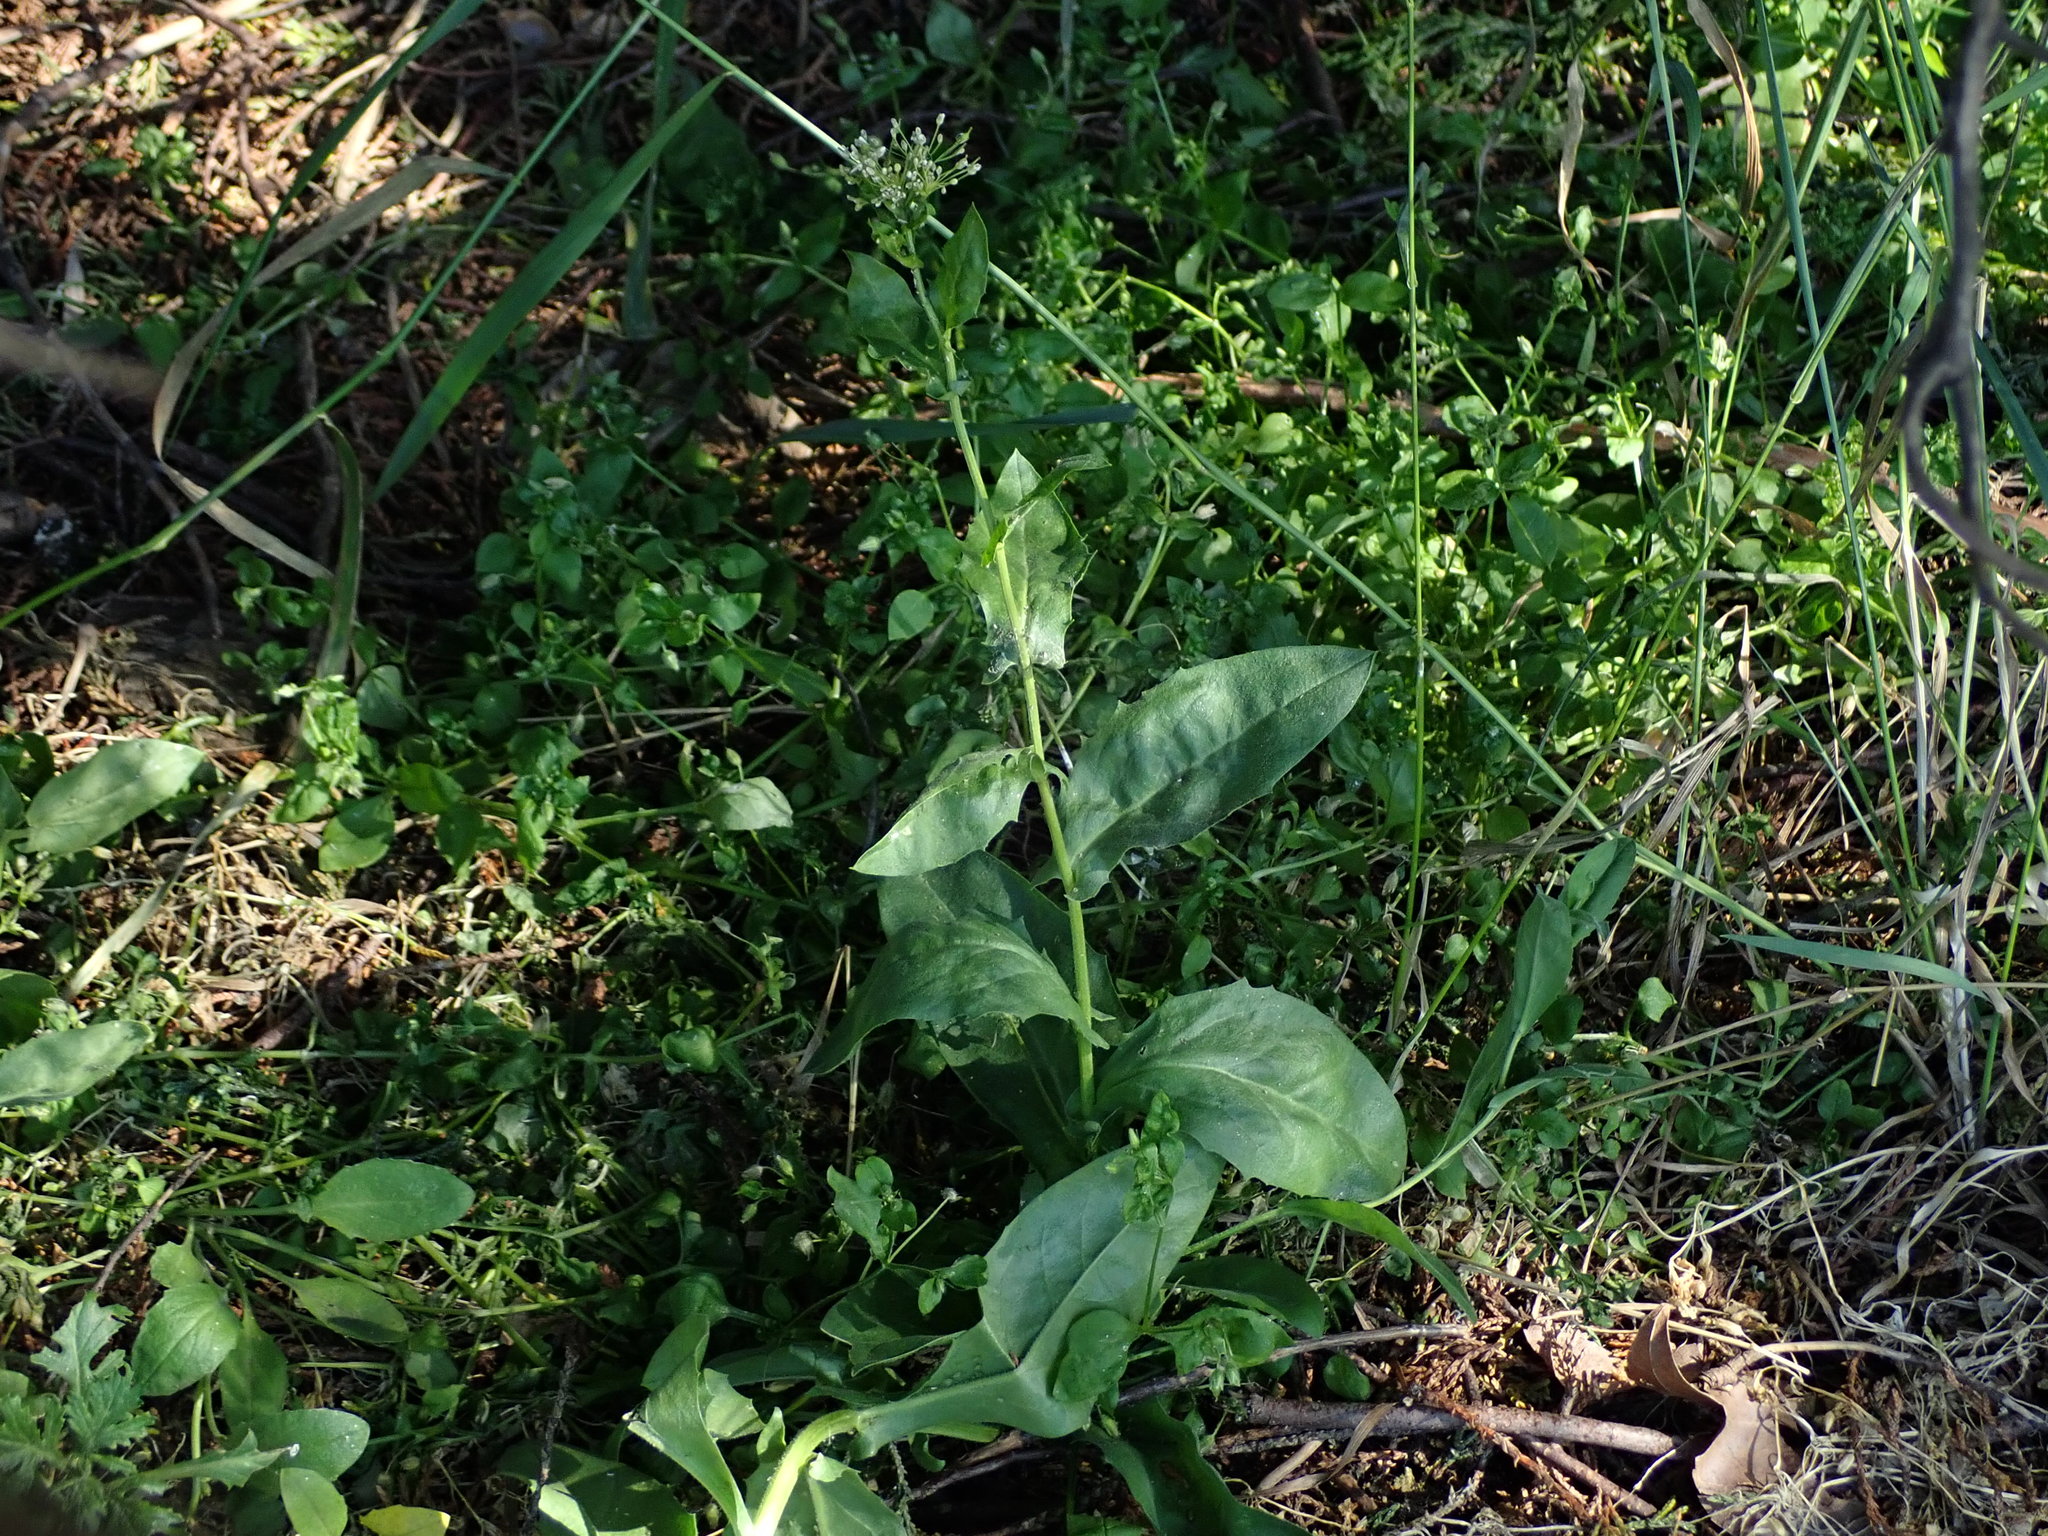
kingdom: Plantae
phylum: Tracheophyta
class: Magnoliopsida
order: Brassicales
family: Brassicaceae
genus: Lepidium
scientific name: Lepidium draba
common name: Hoary cress
